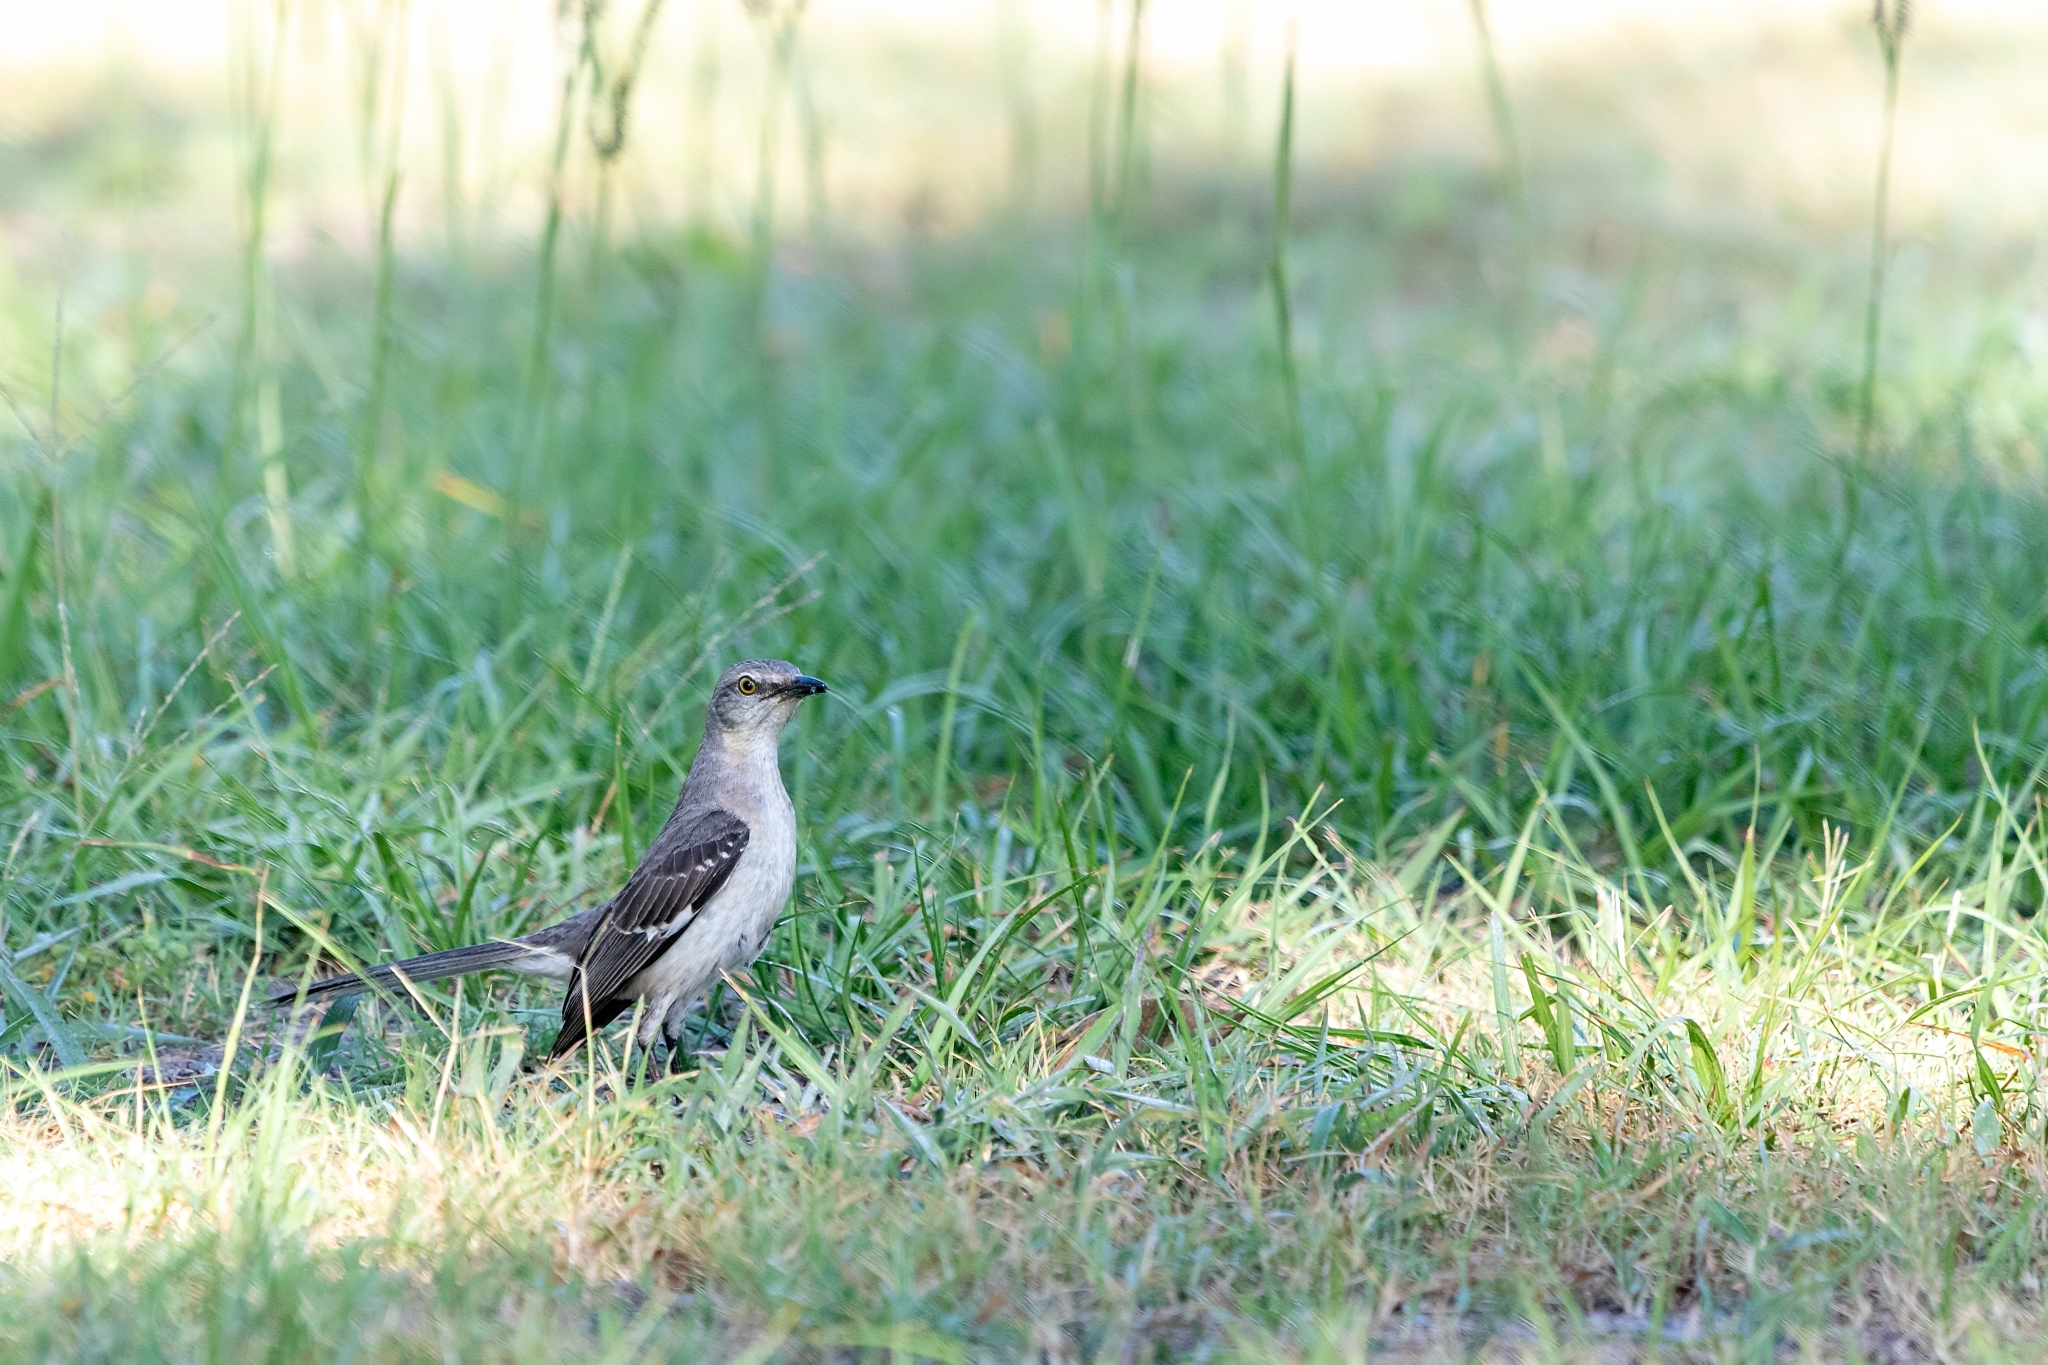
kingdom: Animalia
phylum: Chordata
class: Aves
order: Passeriformes
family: Mimidae
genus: Mimus
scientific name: Mimus polyglottos
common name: Northern mockingbird
